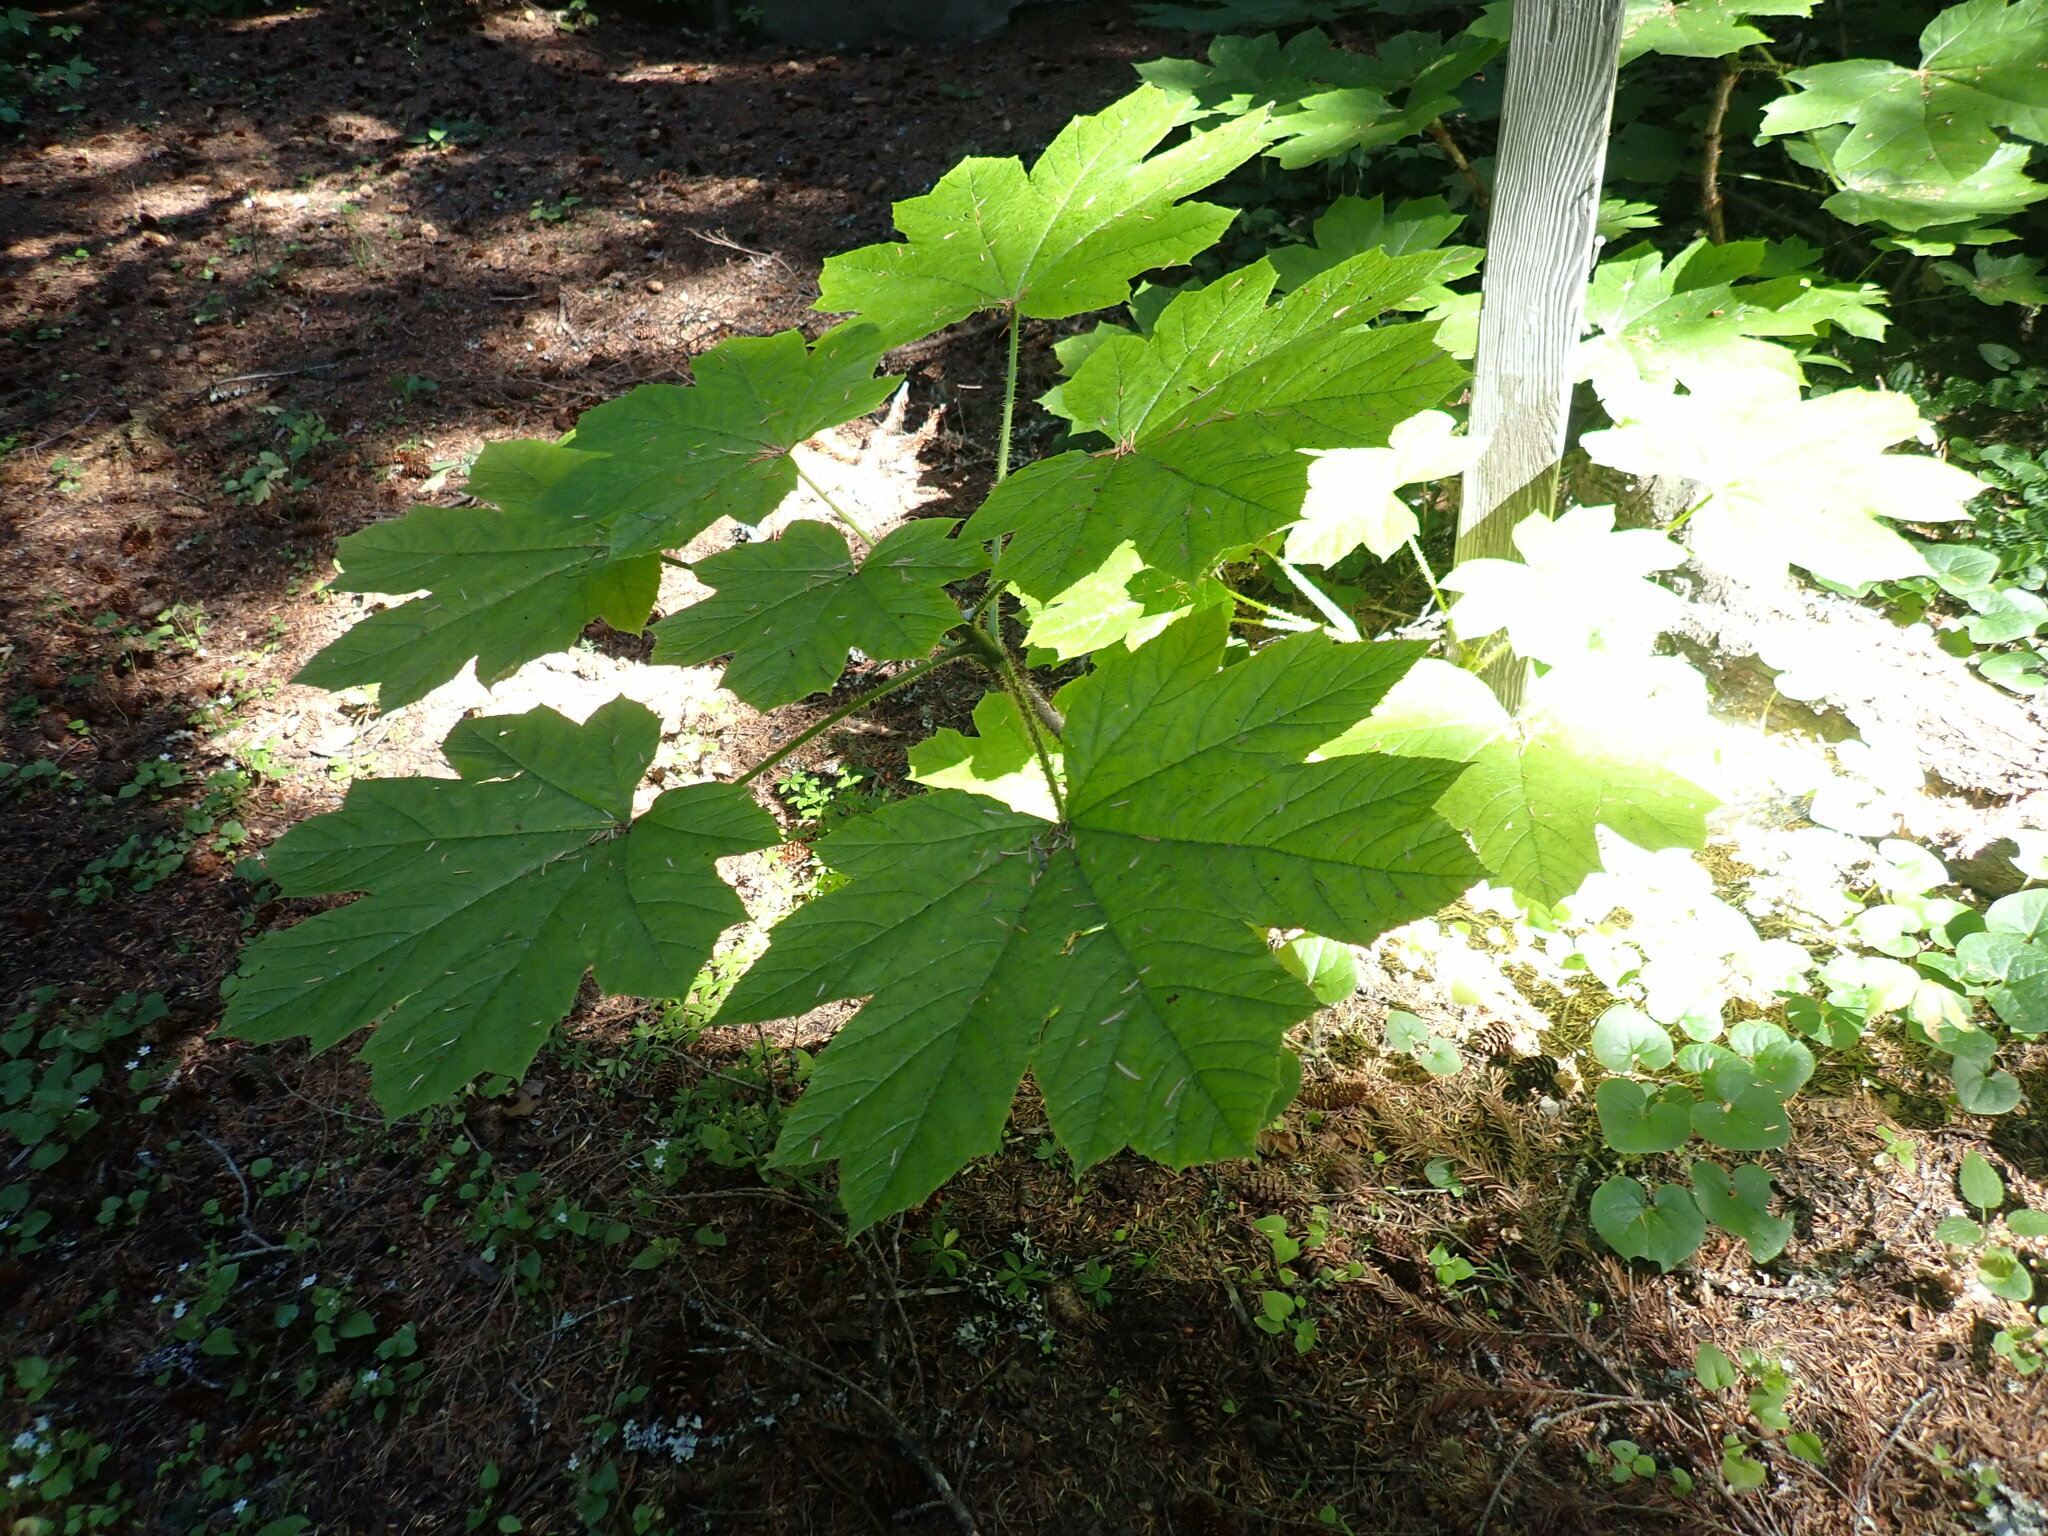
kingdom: Plantae
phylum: Tracheophyta
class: Magnoliopsida
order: Apiales
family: Araliaceae
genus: Oplopanax
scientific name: Oplopanax horridus
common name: Devil's walking-stick
